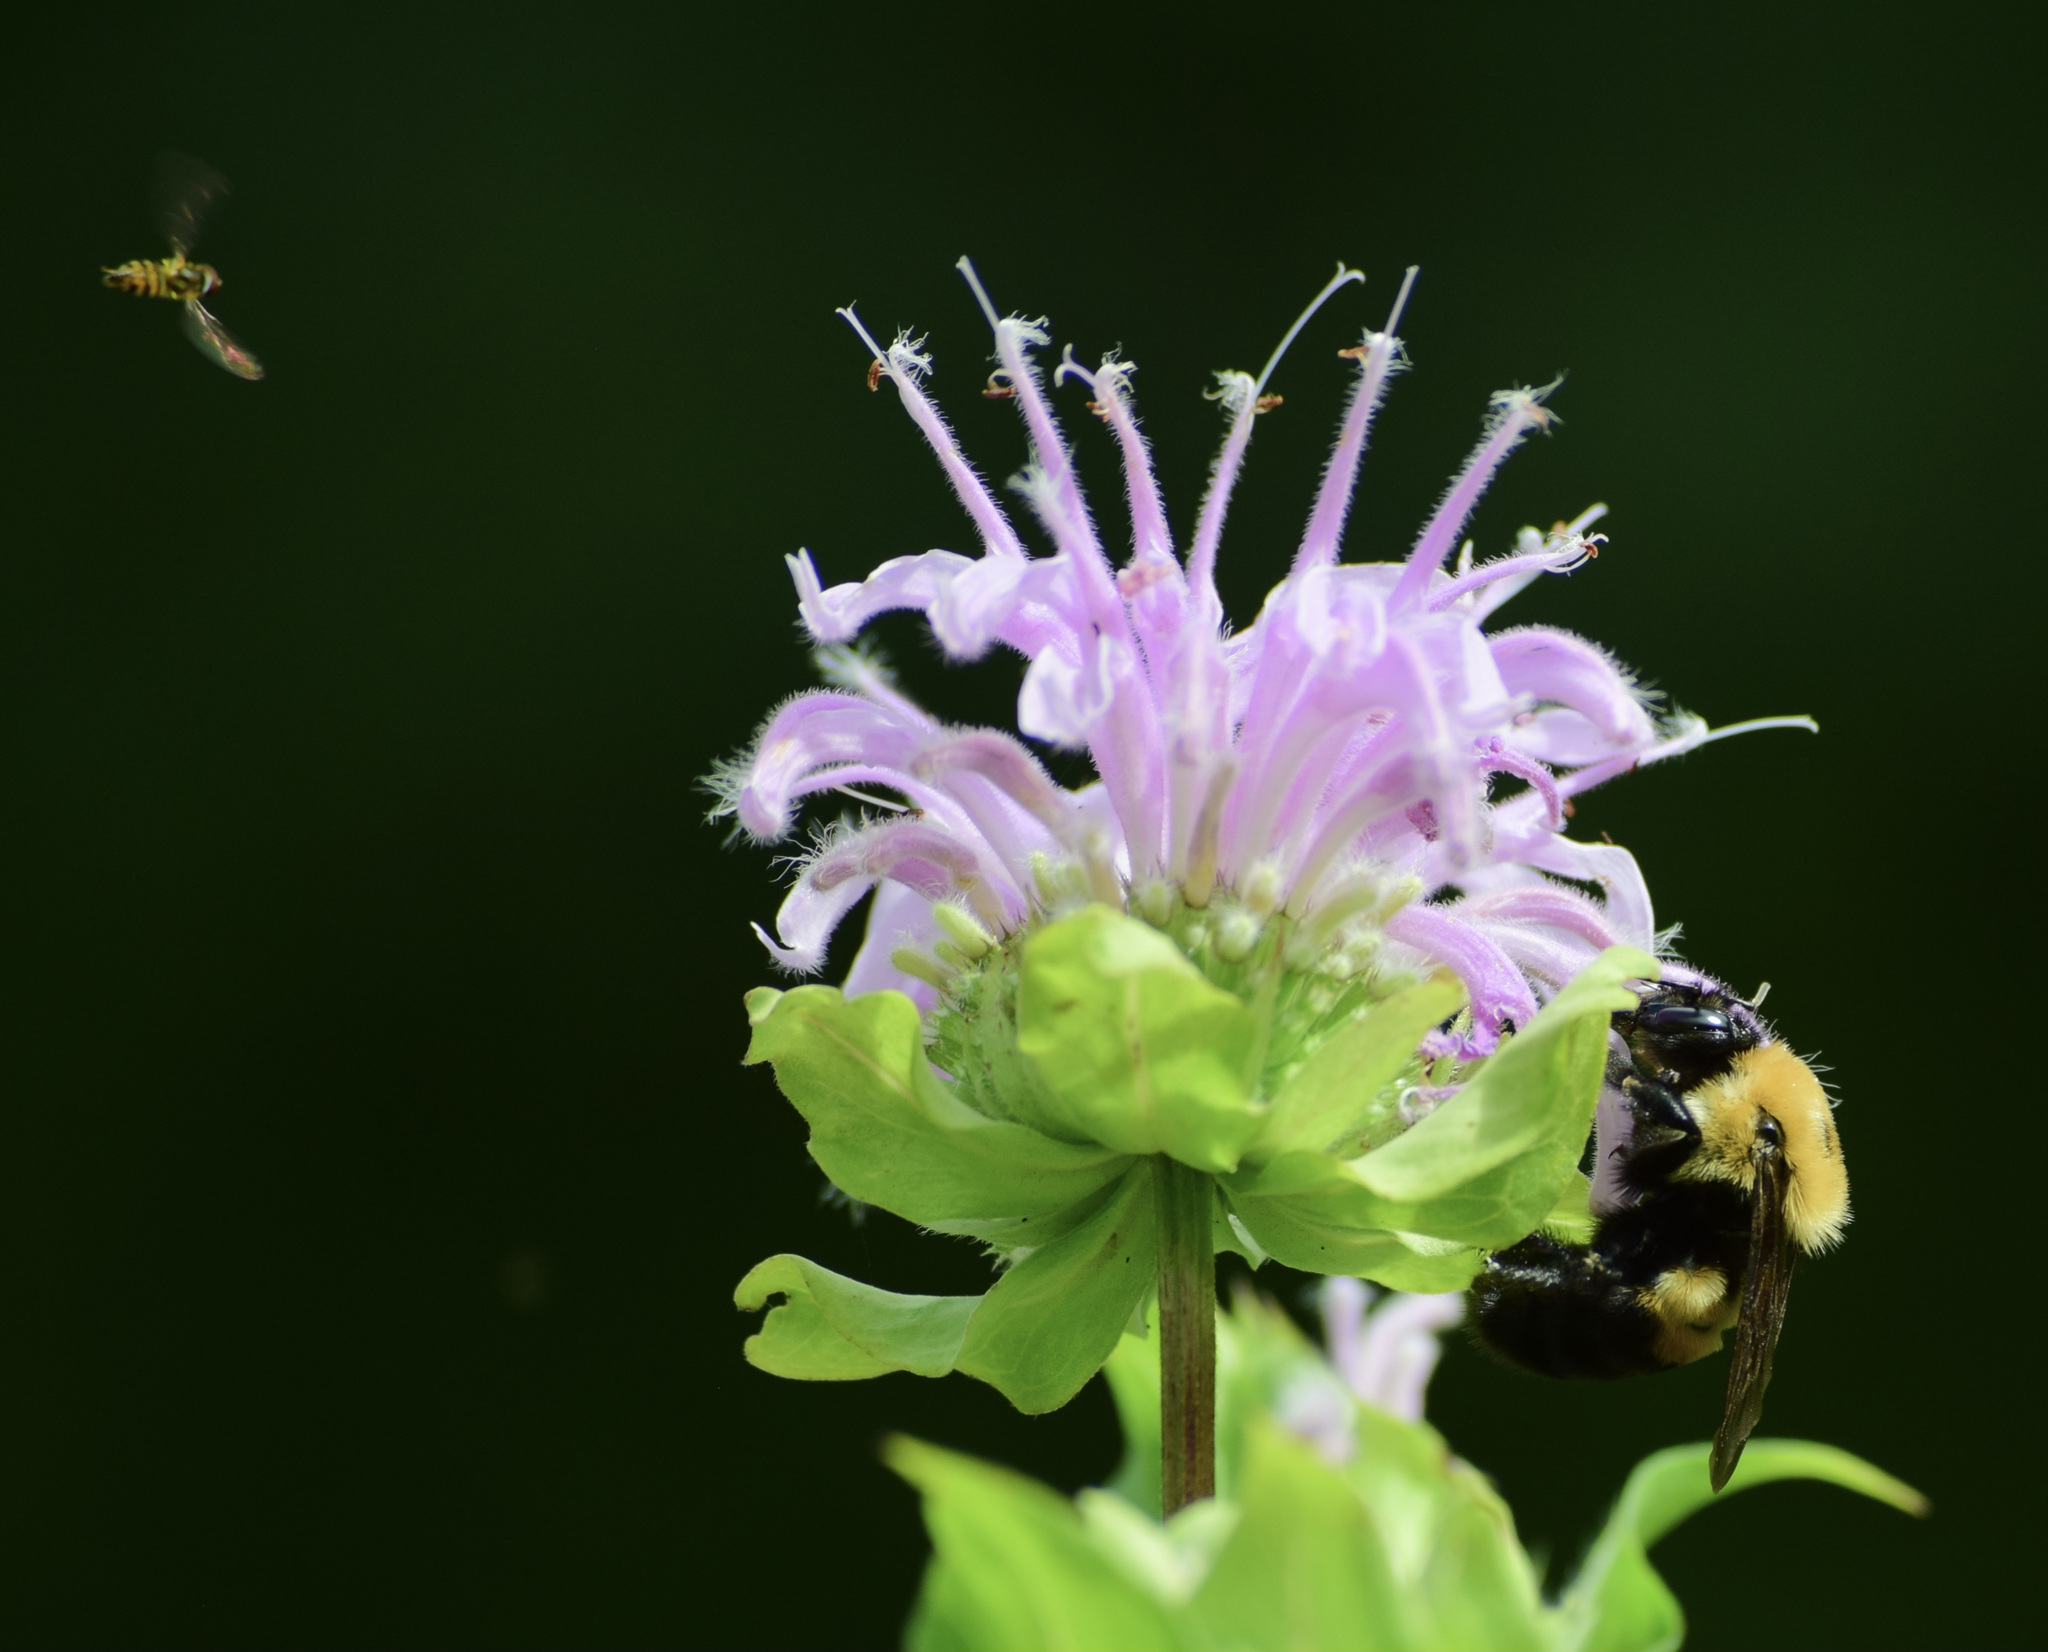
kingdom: Animalia
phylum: Arthropoda
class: Insecta
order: Hymenoptera
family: Apidae
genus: Bombus
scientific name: Bombus griseocollis
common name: Brown-belted bumble bee
